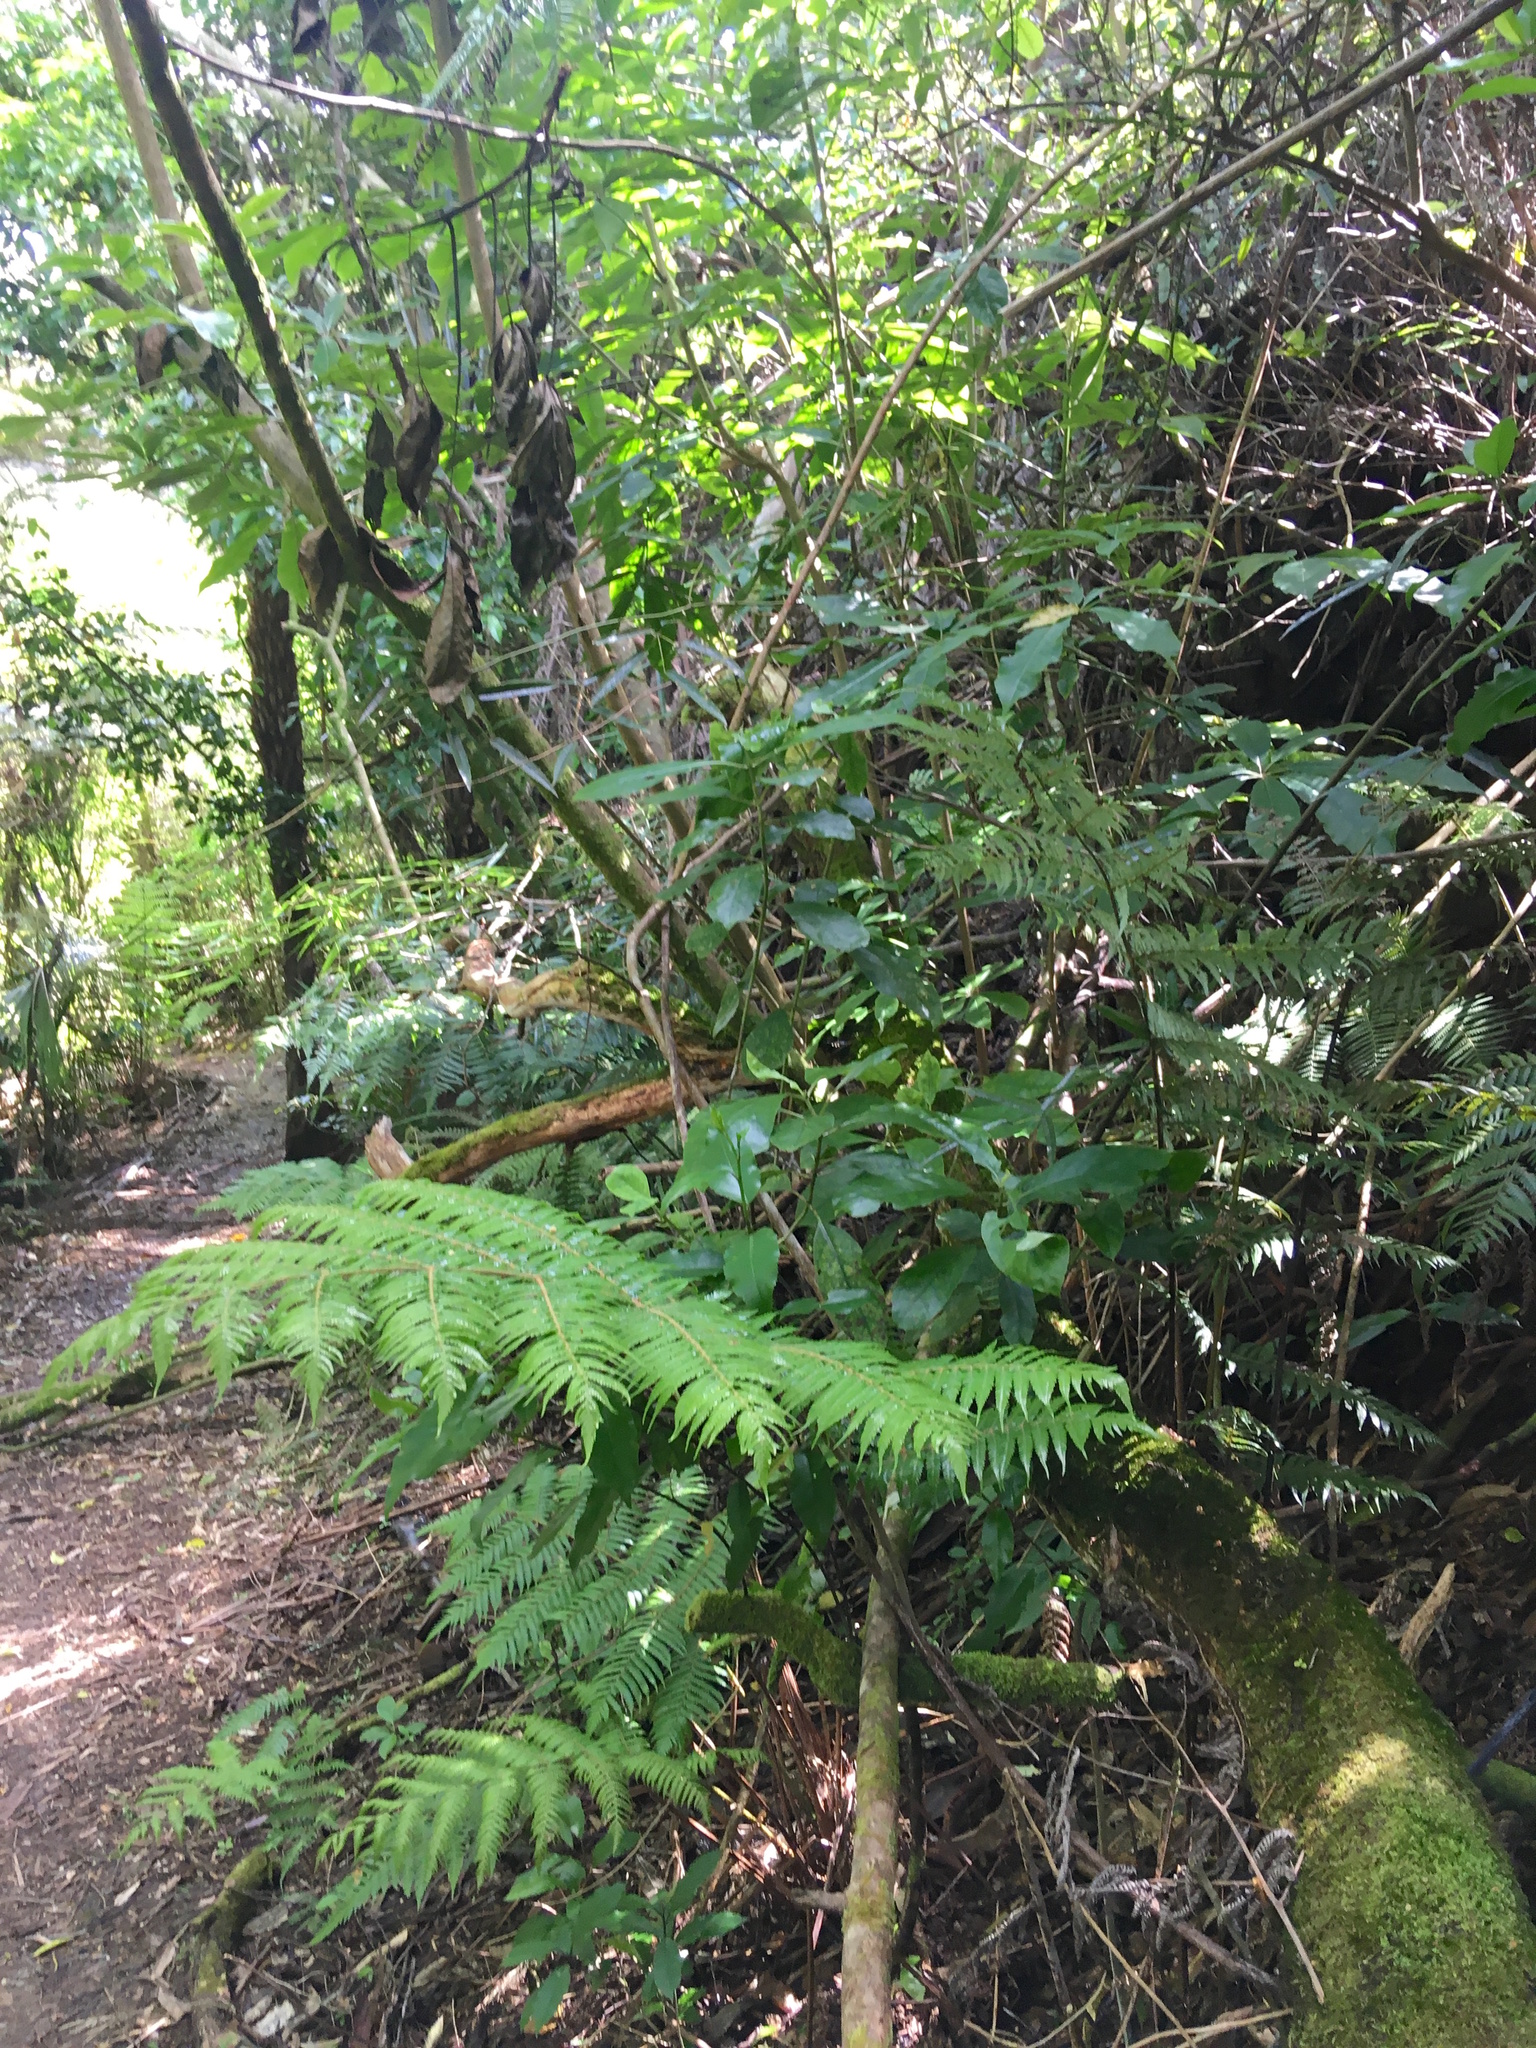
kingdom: Plantae
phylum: Tracheophyta
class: Polypodiopsida
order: Cyatheales
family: Cyatheaceae
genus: Alsophila
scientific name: Alsophila dealbata
